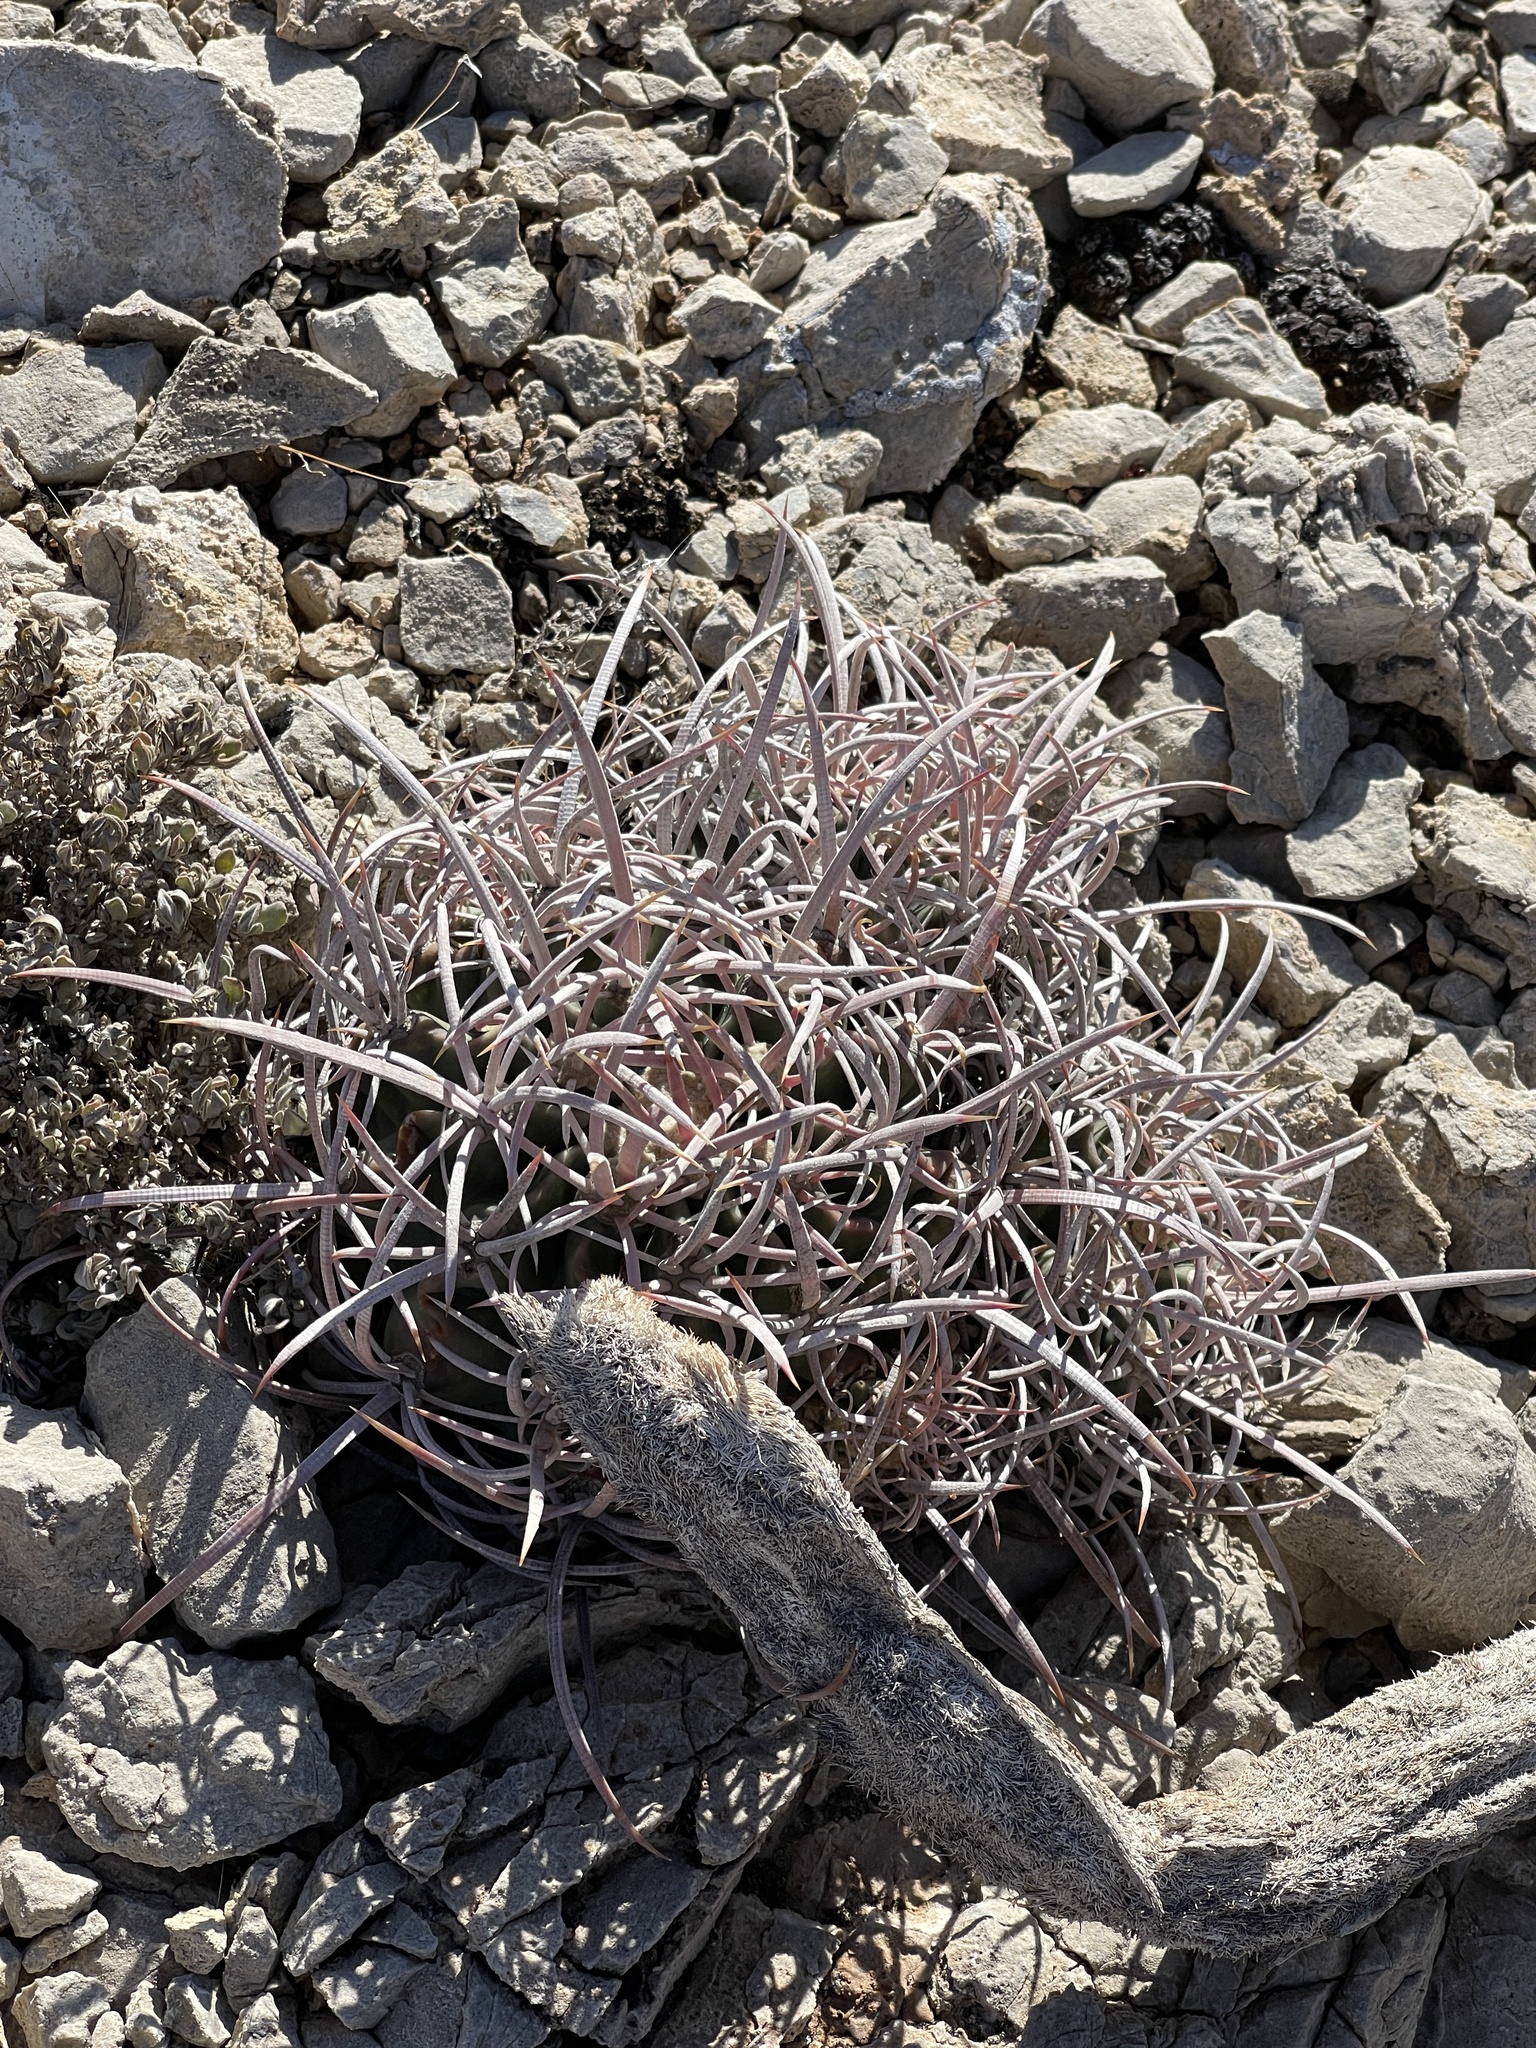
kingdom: Plantae
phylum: Tracheophyta
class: Magnoliopsida
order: Caryophyllales
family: Cactaceae
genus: Echinocactus
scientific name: Echinocactus polycephalus
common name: Cottontop cactus
